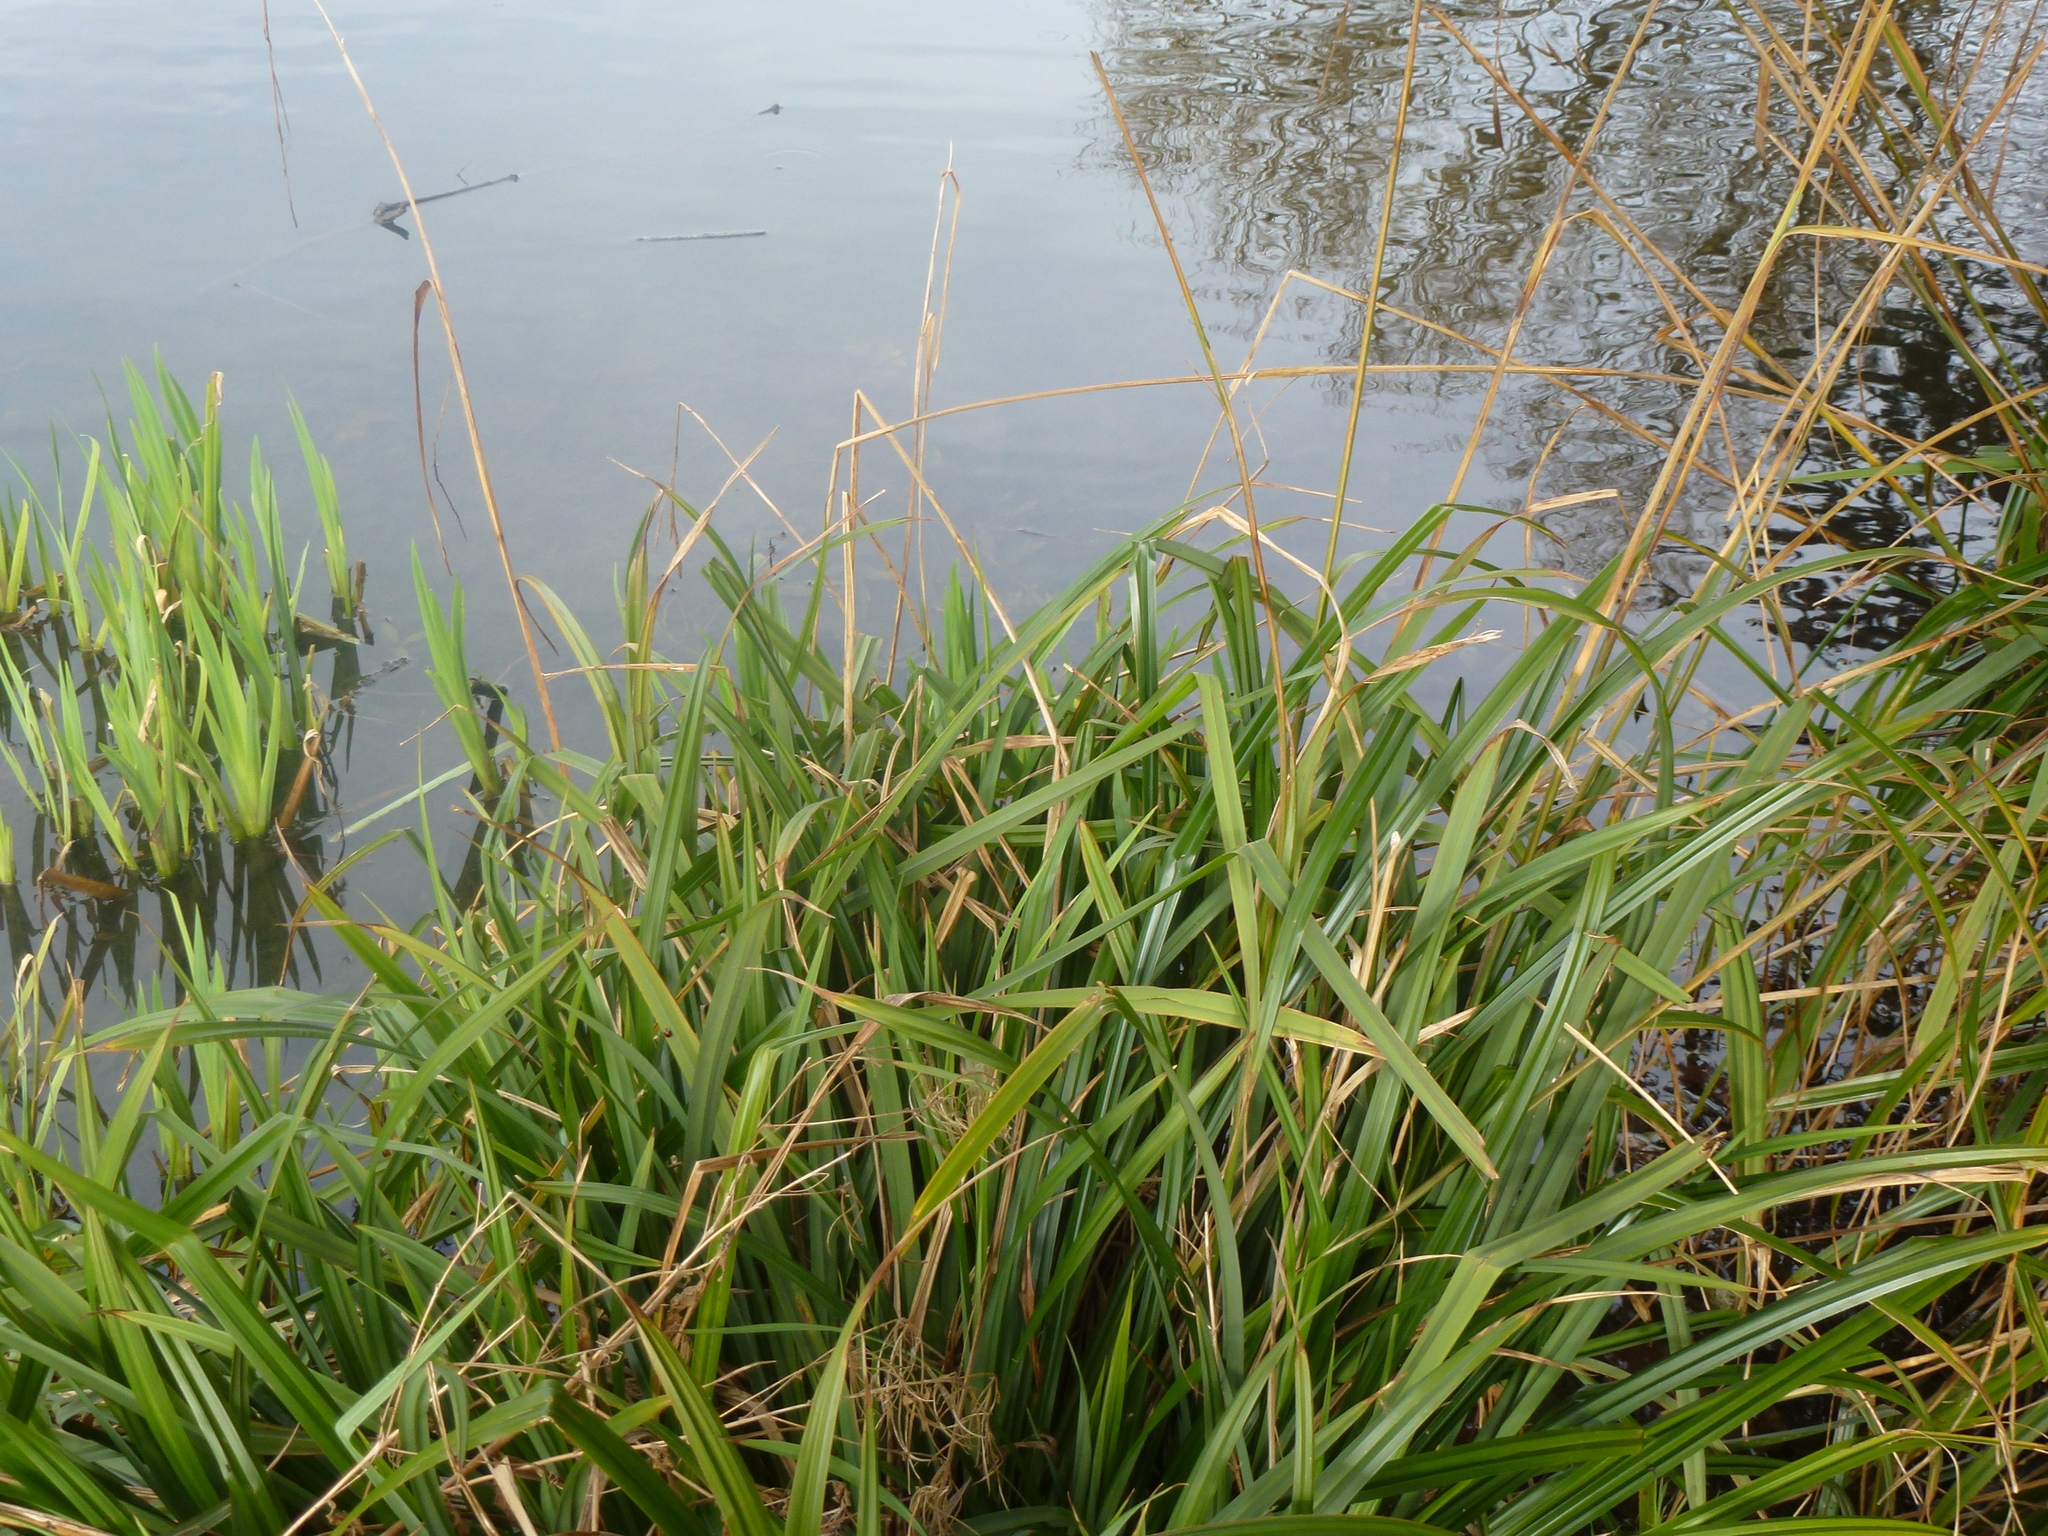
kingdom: Plantae
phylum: Tracheophyta
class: Liliopsida
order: Poales
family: Cyperaceae
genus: Carex
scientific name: Carex pendula
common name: Pendulous sedge
